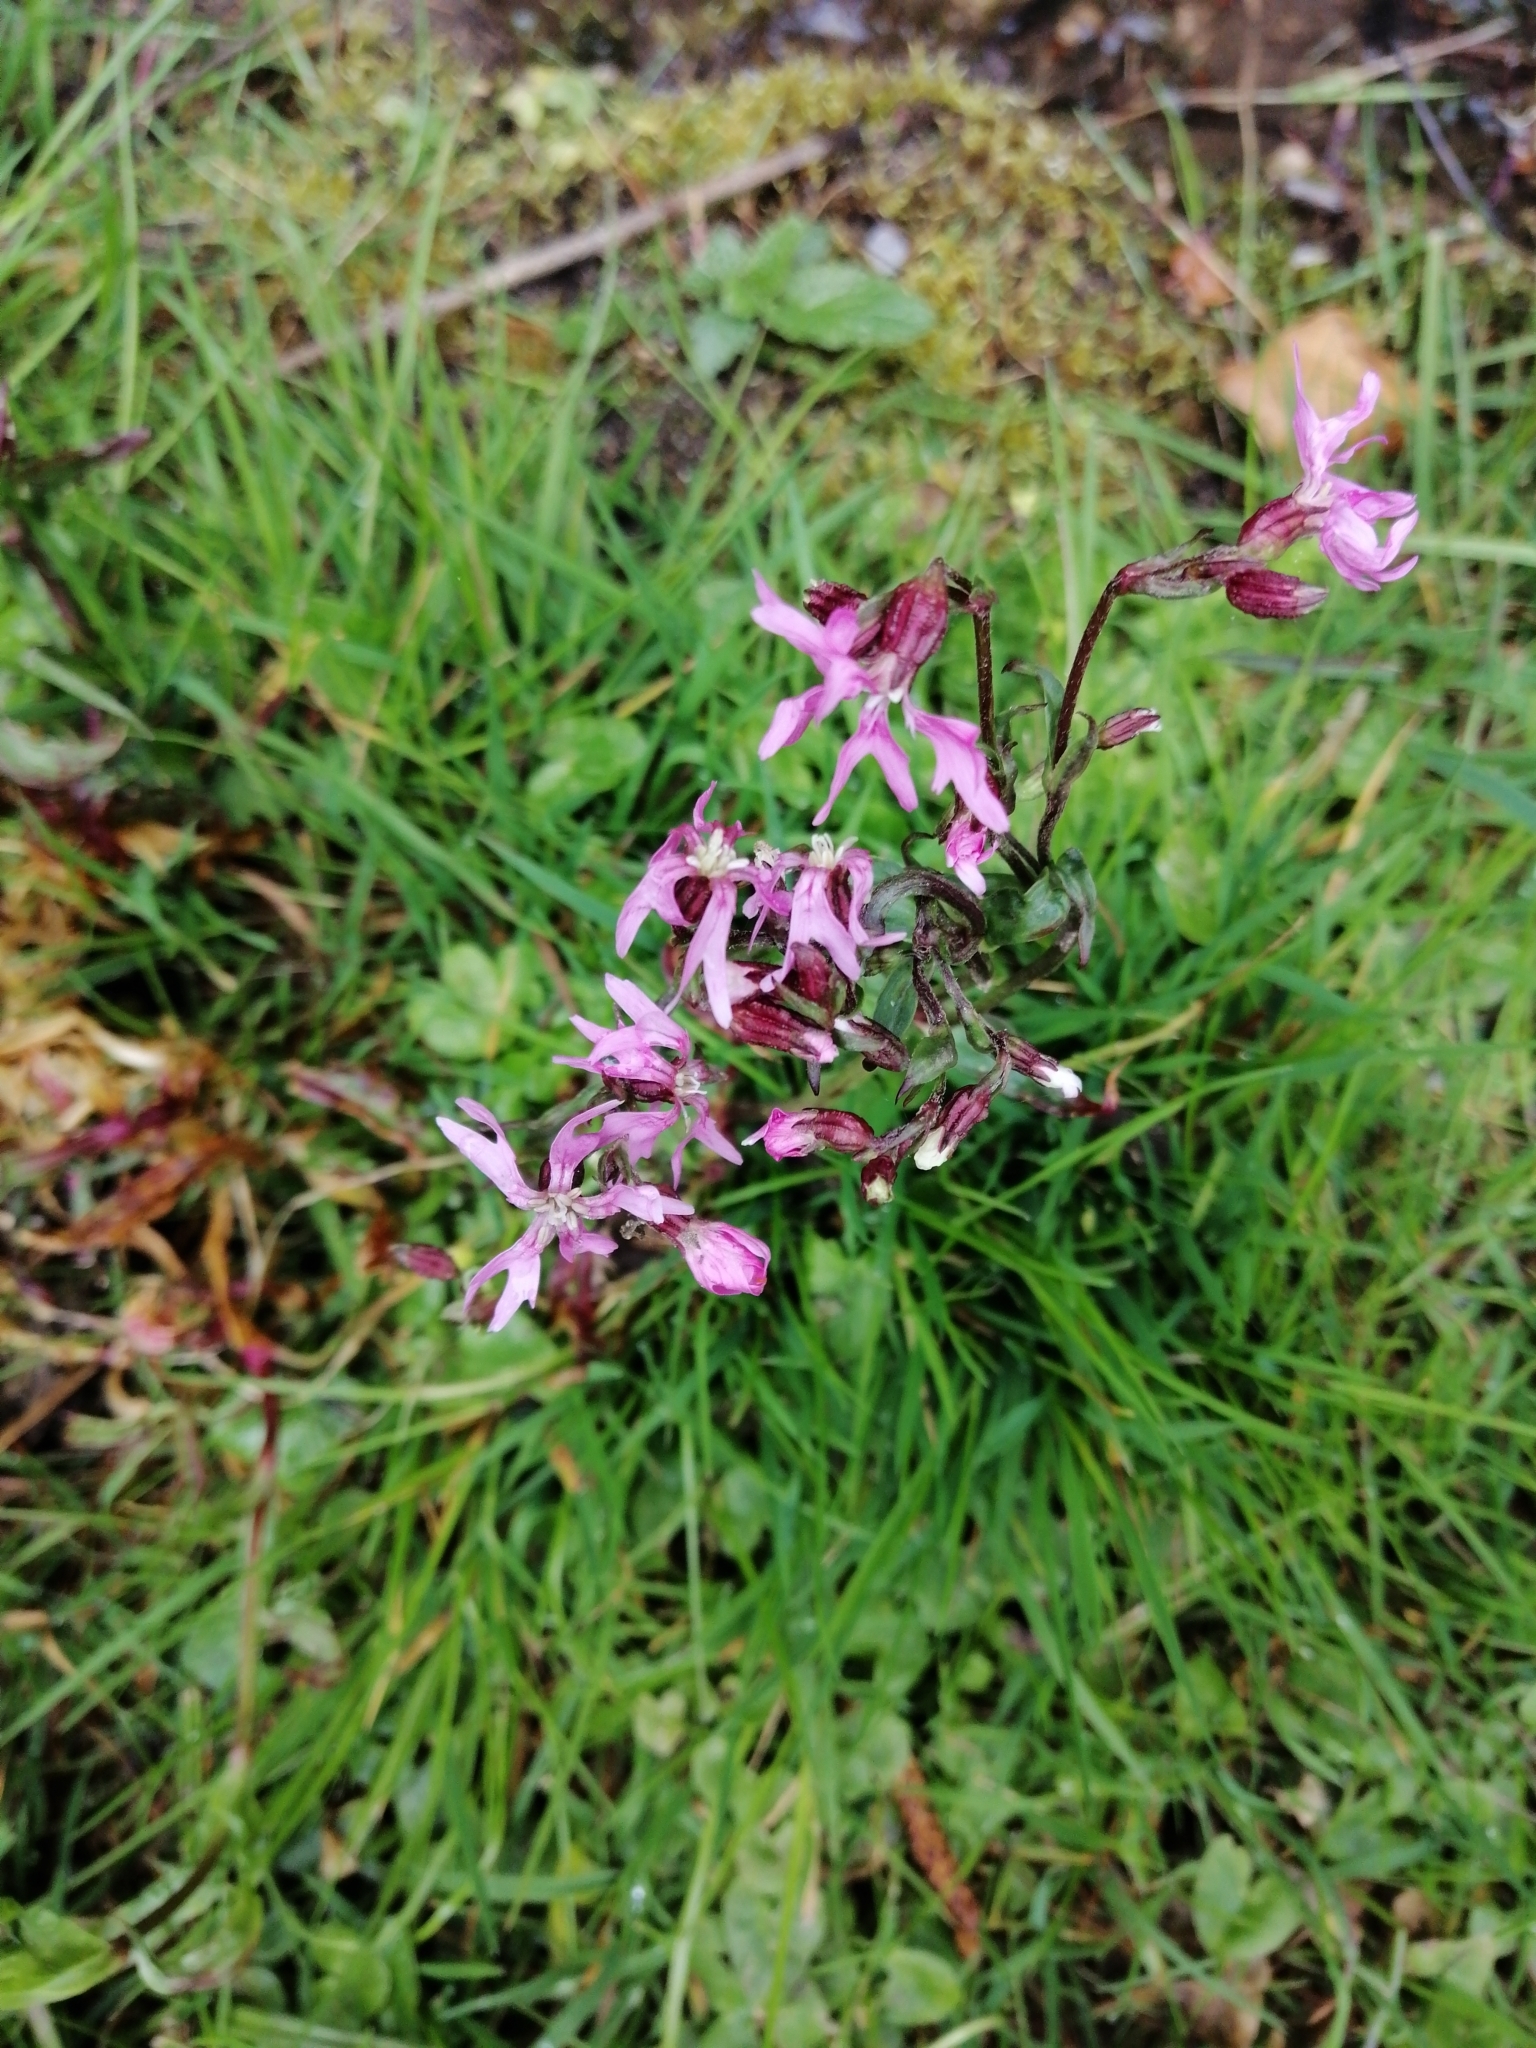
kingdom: Plantae
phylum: Tracheophyta
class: Magnoliopsida
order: Caryophyllales
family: Caryophyllaceae
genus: Silene
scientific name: Silene flos-cuculi
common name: Ragged-robin
